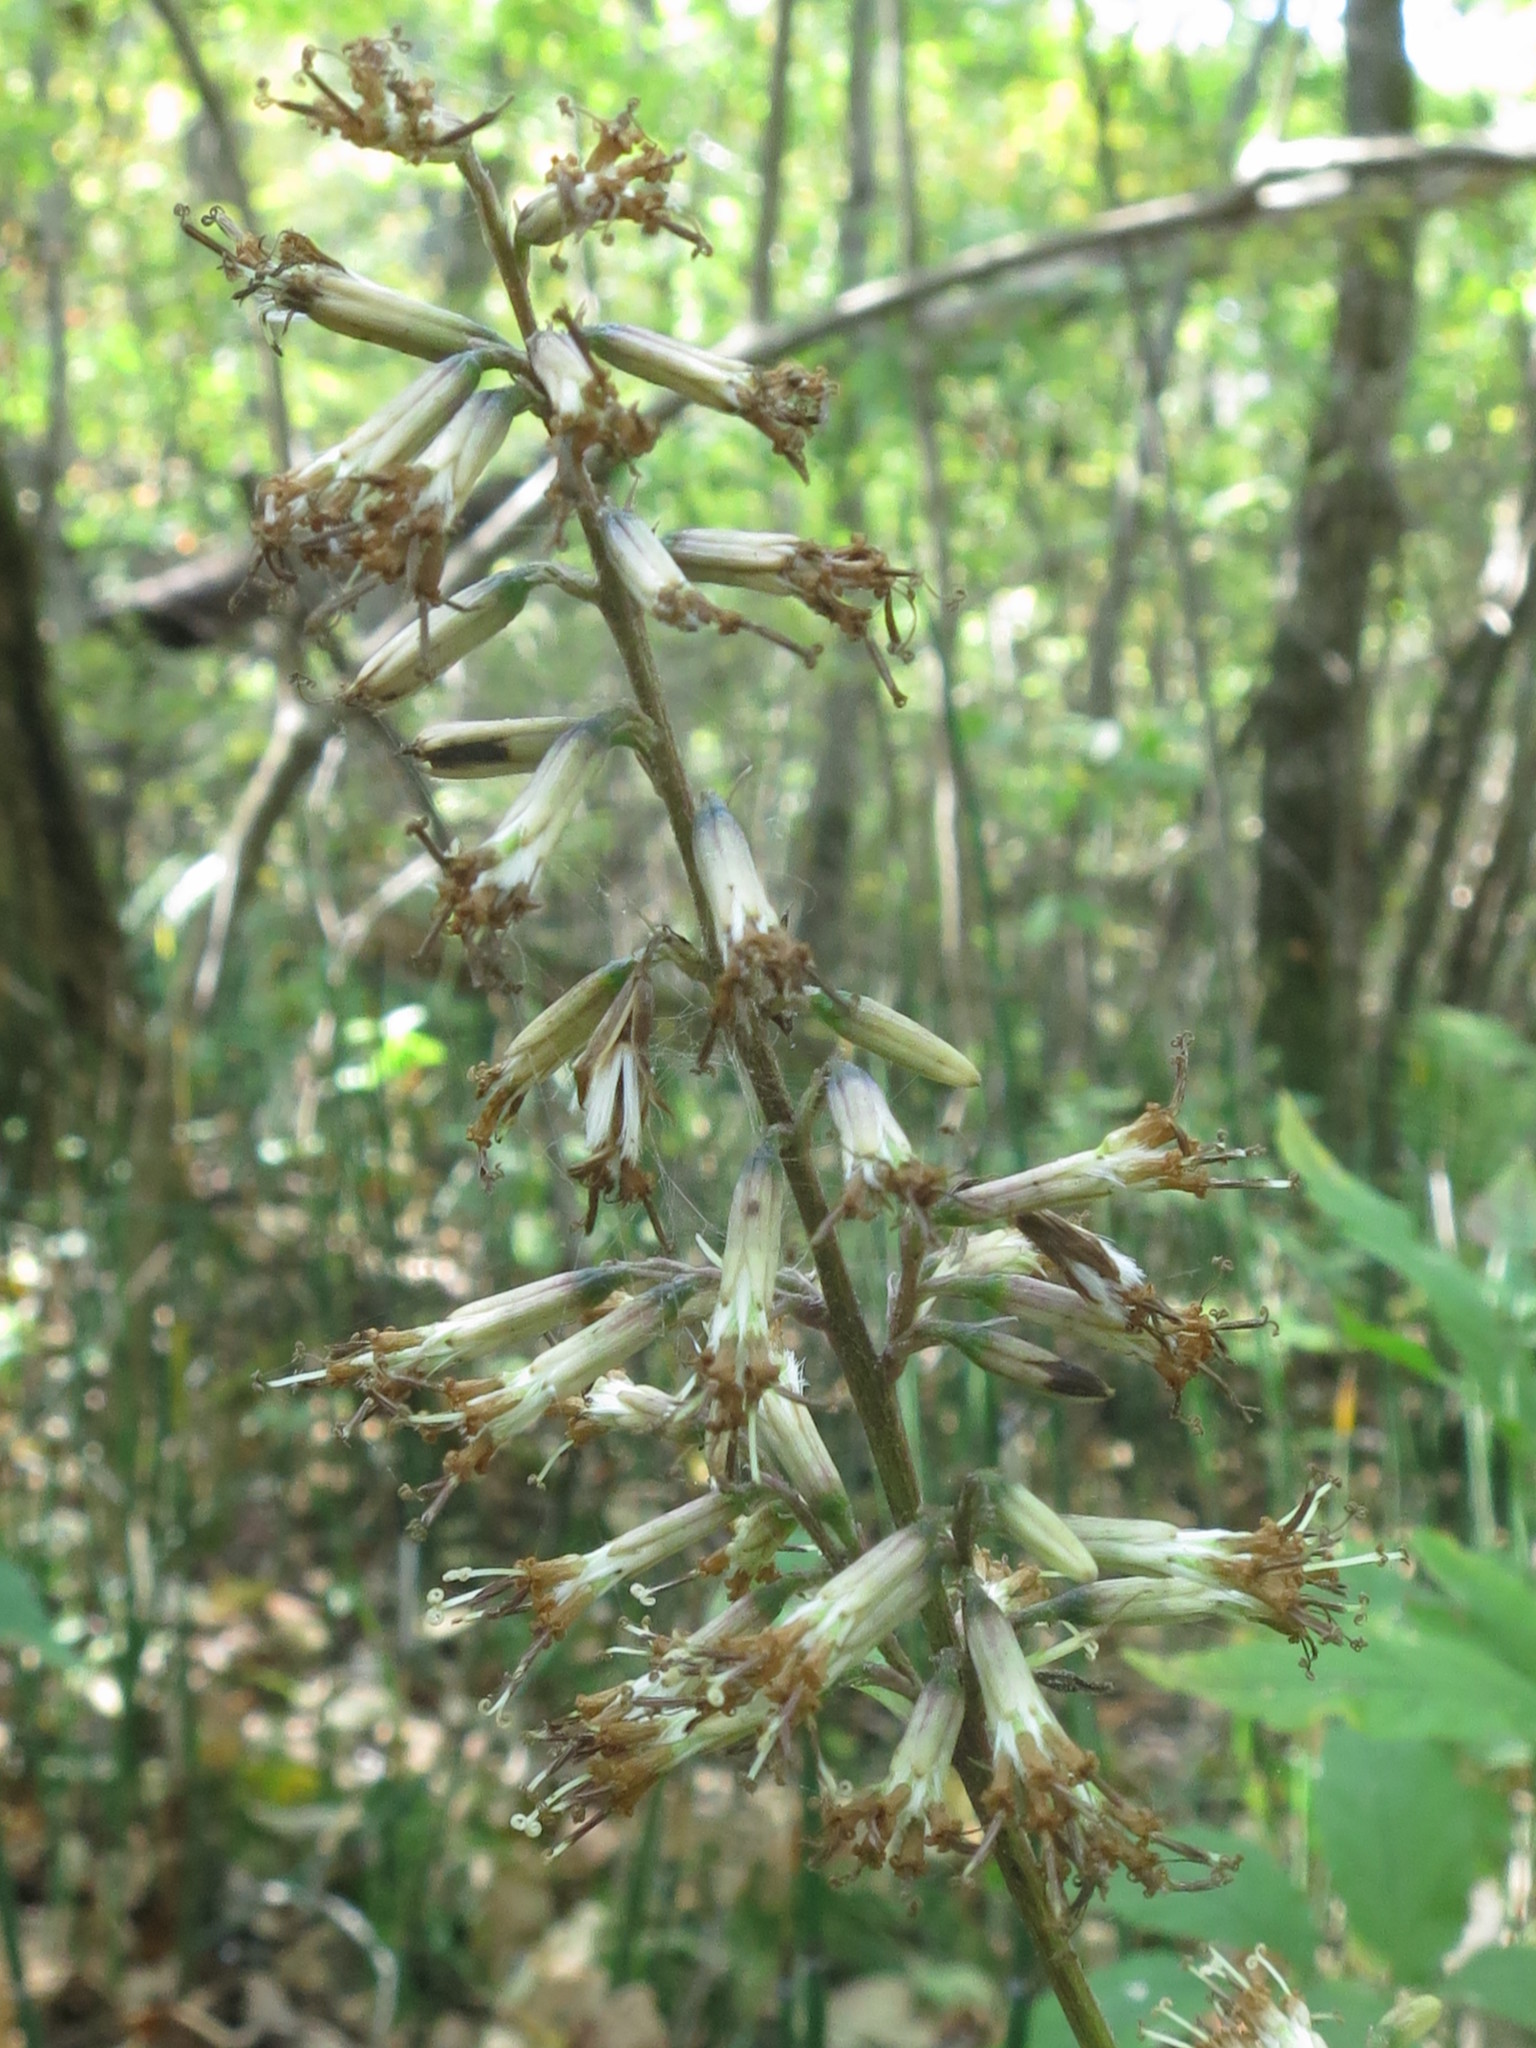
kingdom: Plantae
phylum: Tracheophyta
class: Magnoliopsida
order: Asterales
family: Asteraceae
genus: Parasenecio
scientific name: Parasenecio praetermissus
